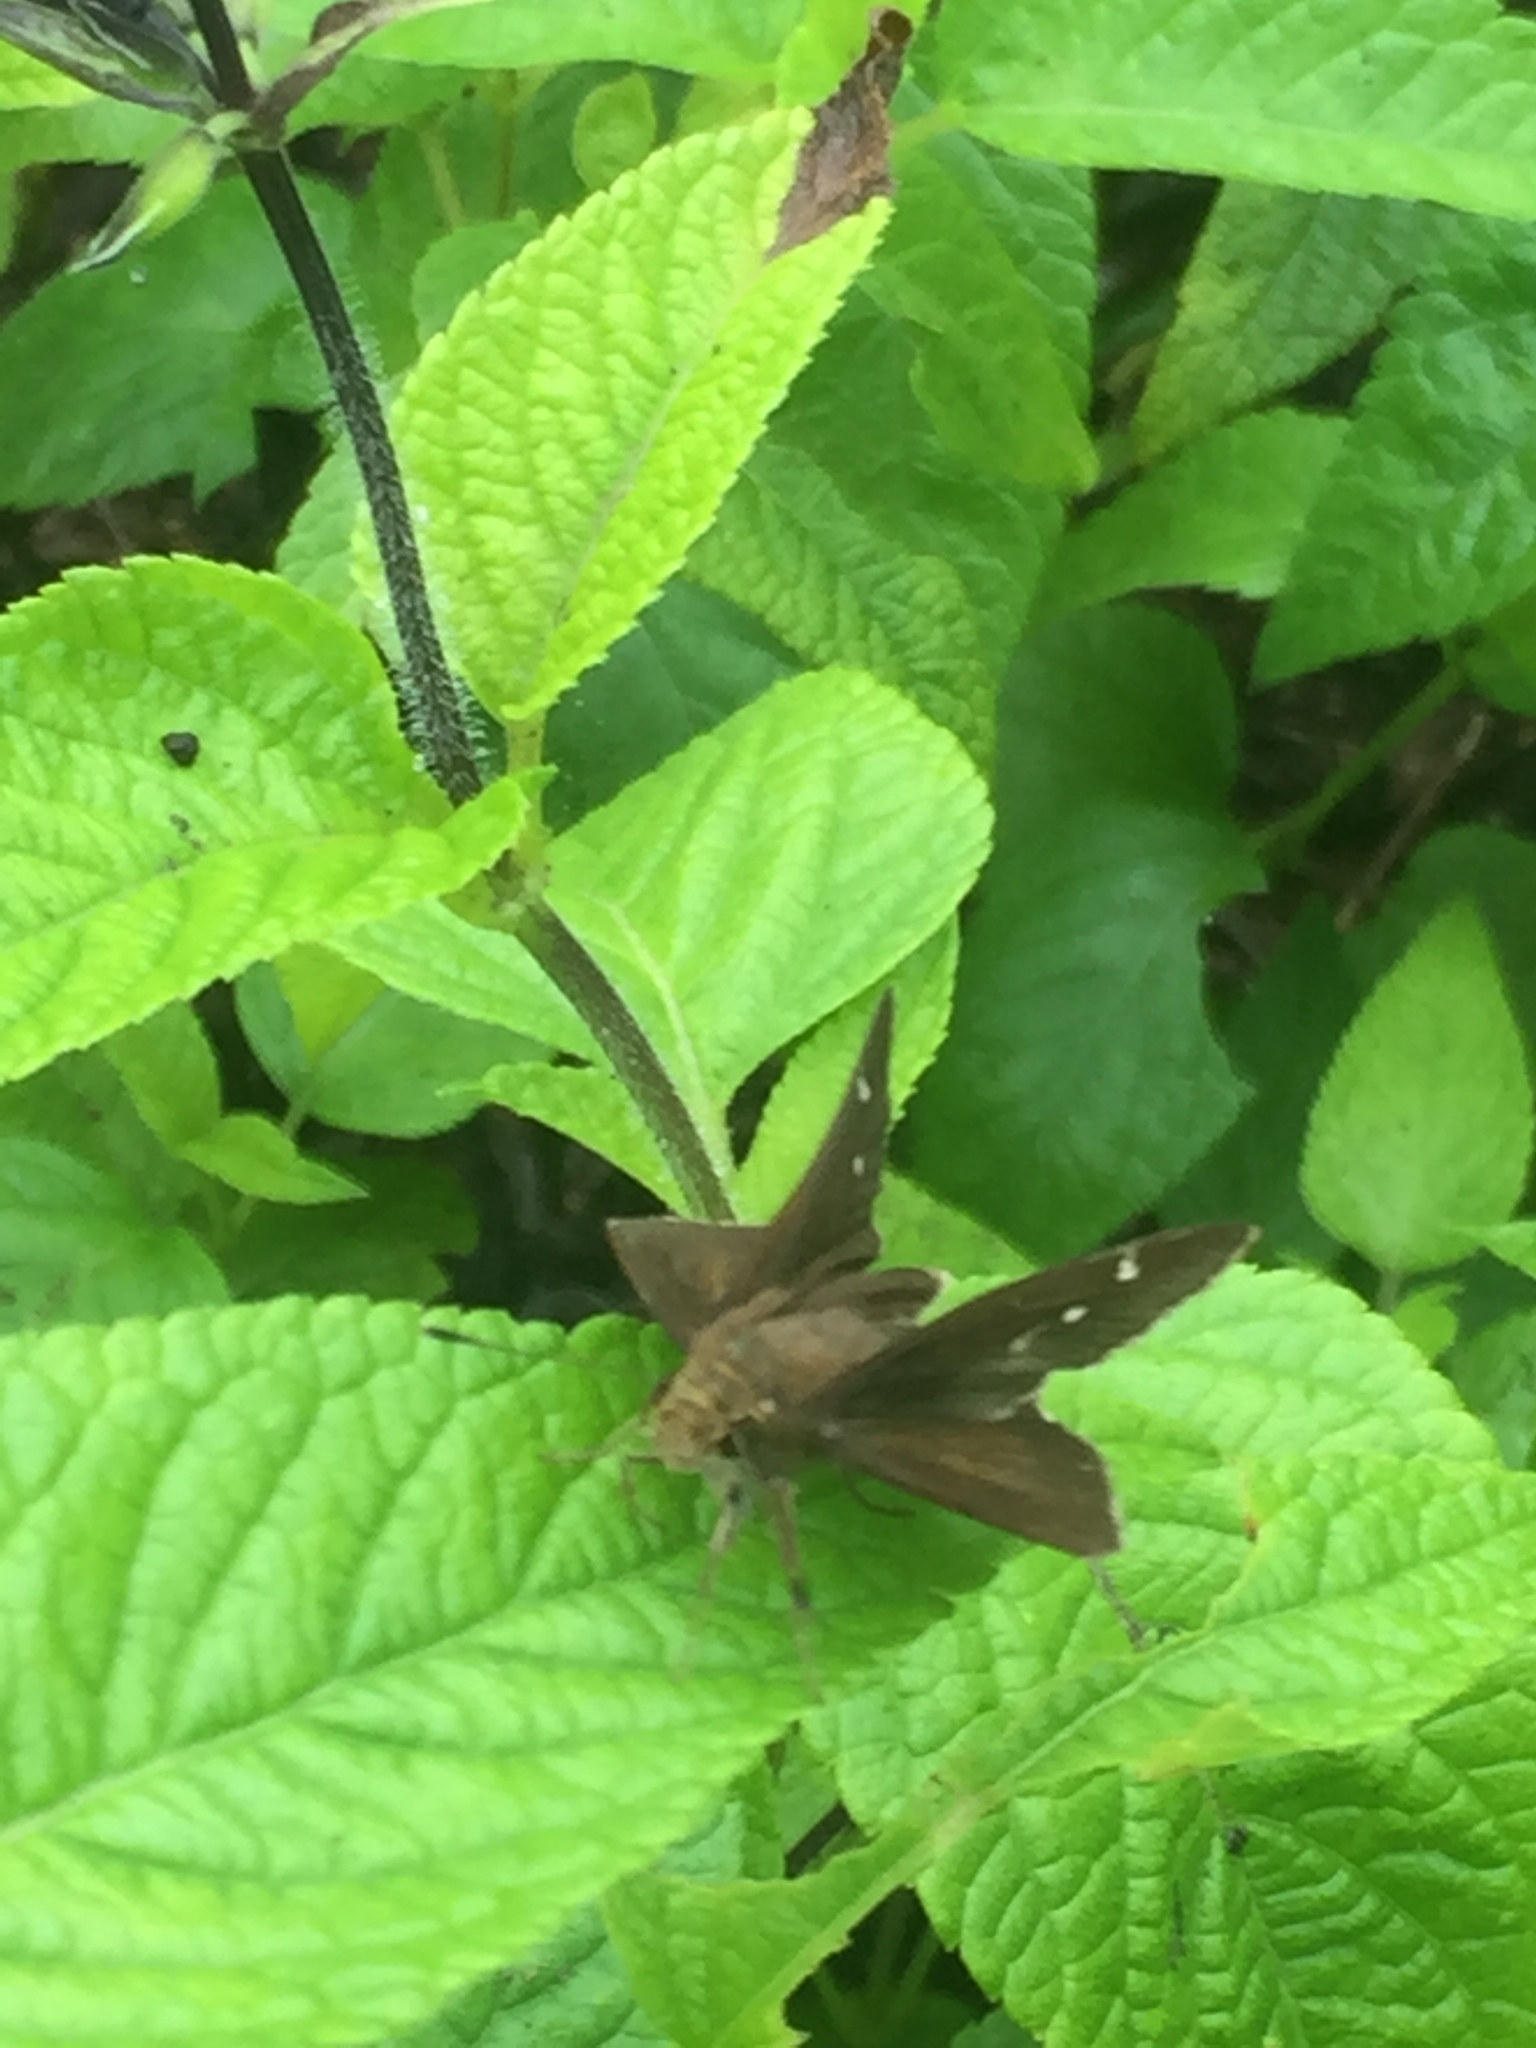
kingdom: Animalia
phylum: Arthropoda
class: Insecta
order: Lepidoptera
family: Hesperiidae
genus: Lerema
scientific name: Lerema accius
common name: Clouded skipper
